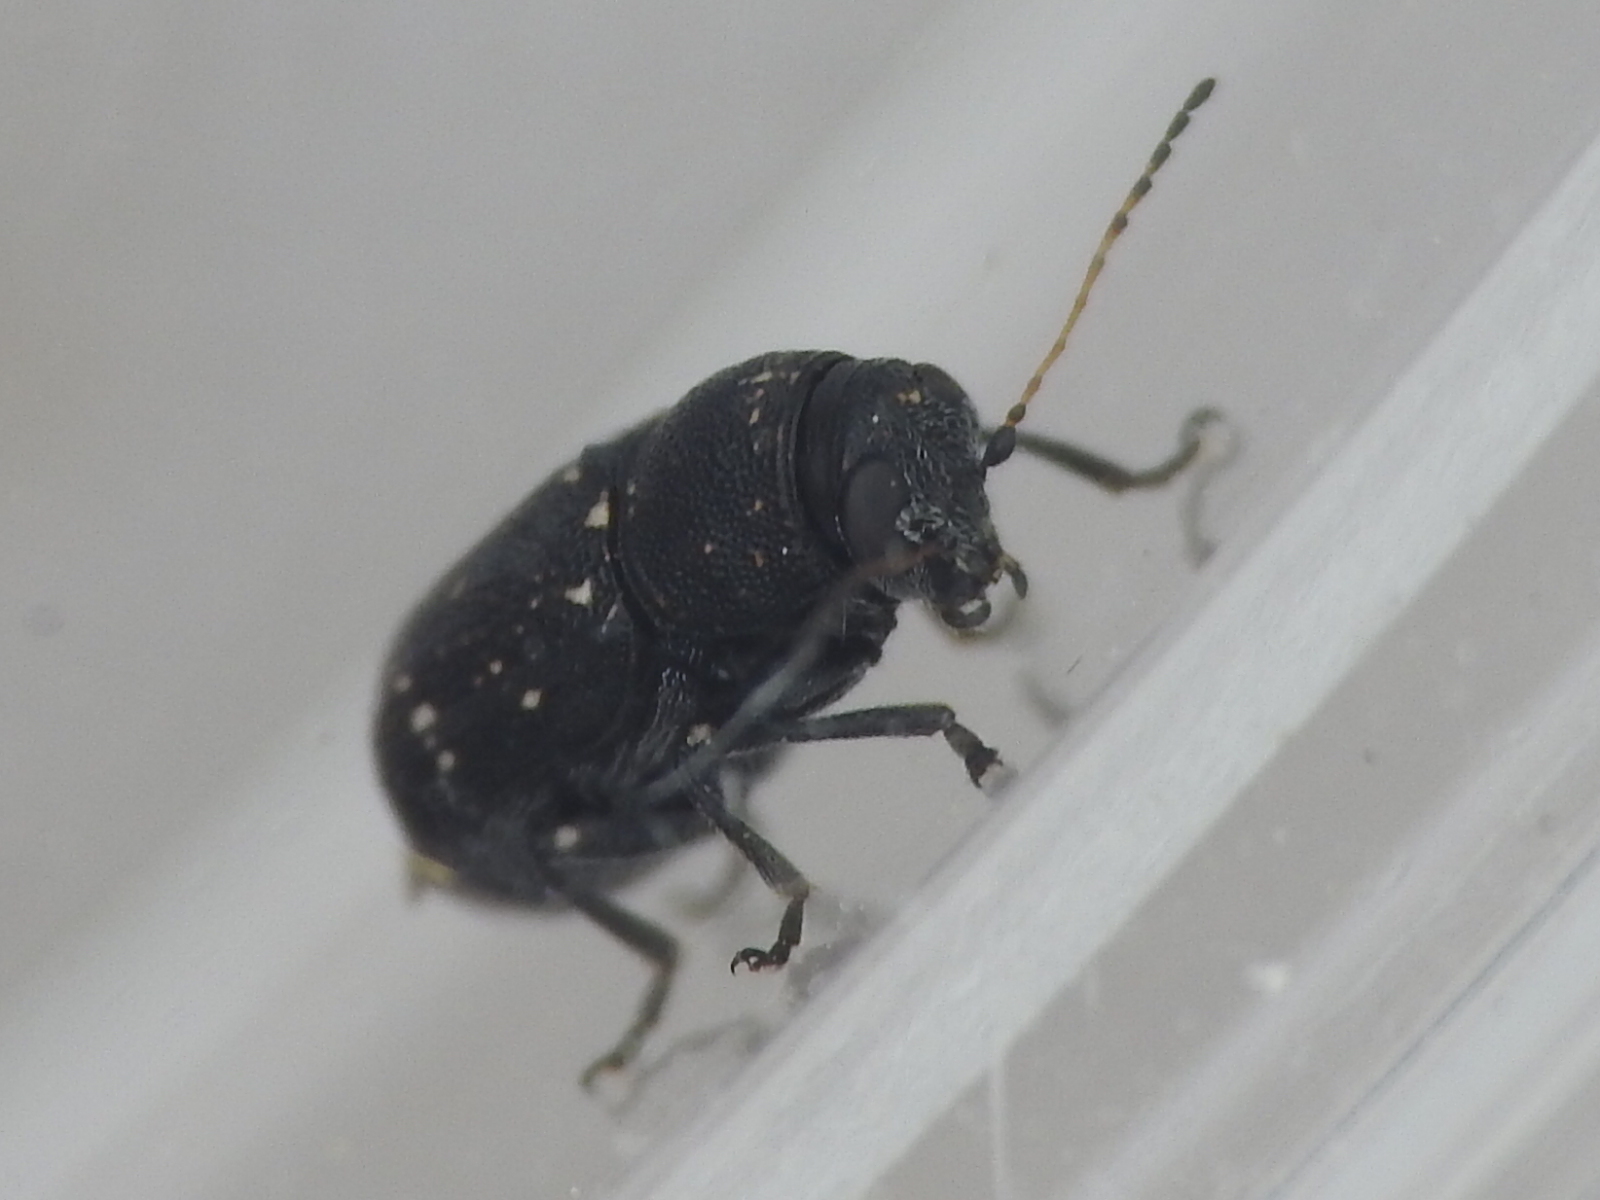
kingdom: Animalia
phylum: Arthropoda
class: Insecta
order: Coleoptera
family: Chrysomelidae
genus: Pachybrachis
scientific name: Pachybrachis stygicus
